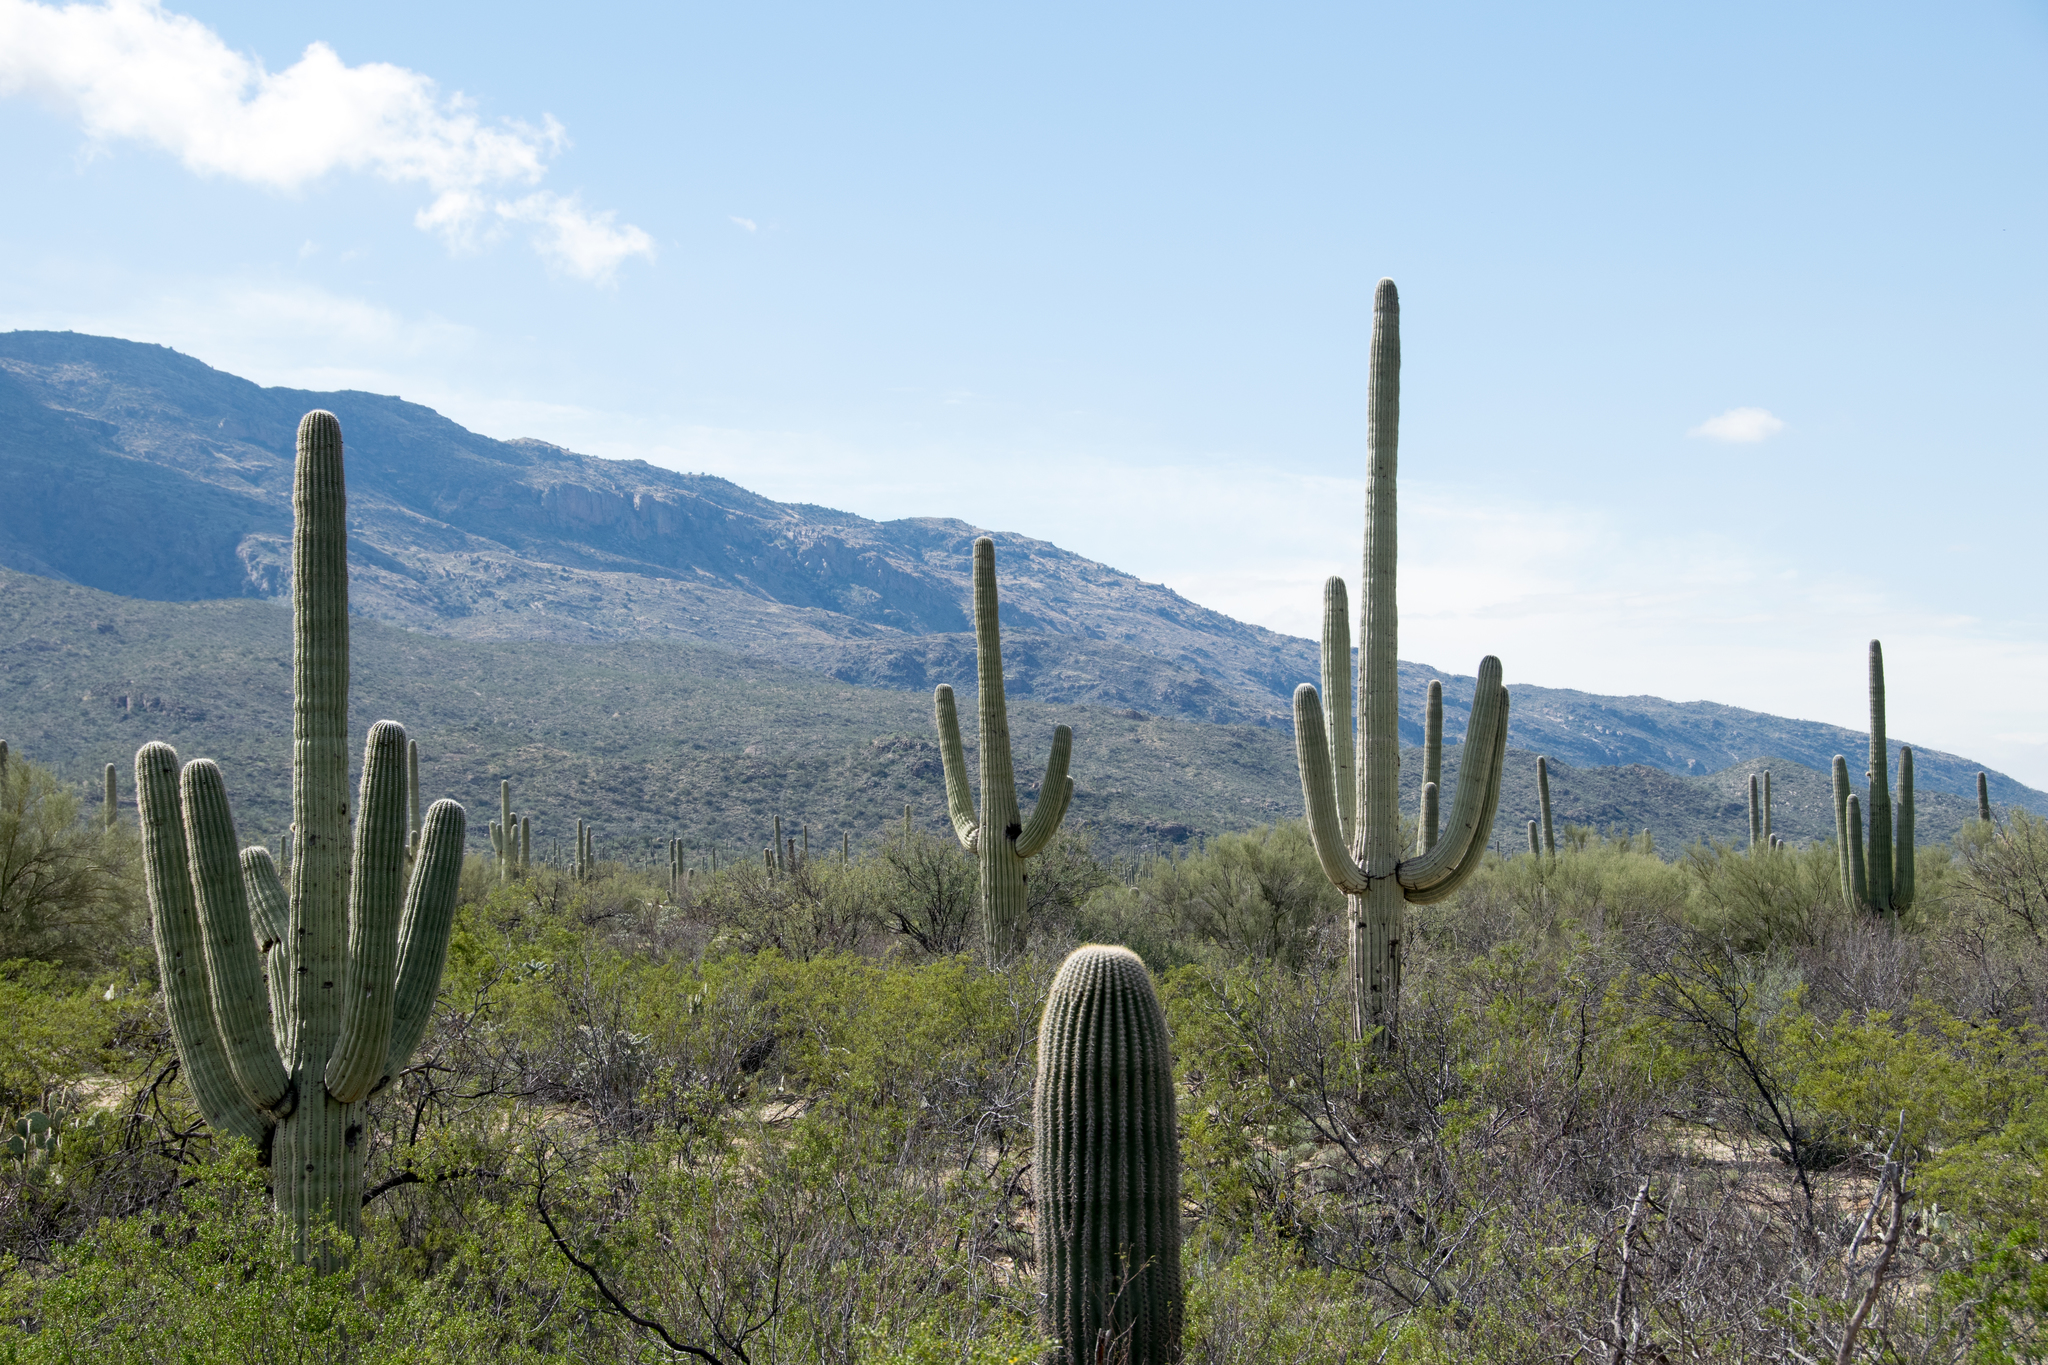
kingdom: Plantae
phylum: Tracheophyta
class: Magnoliopsida
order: Caryophyllales
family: Cactaceae
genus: Carnegiea
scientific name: Carnegiea gigantea
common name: Saguaro
